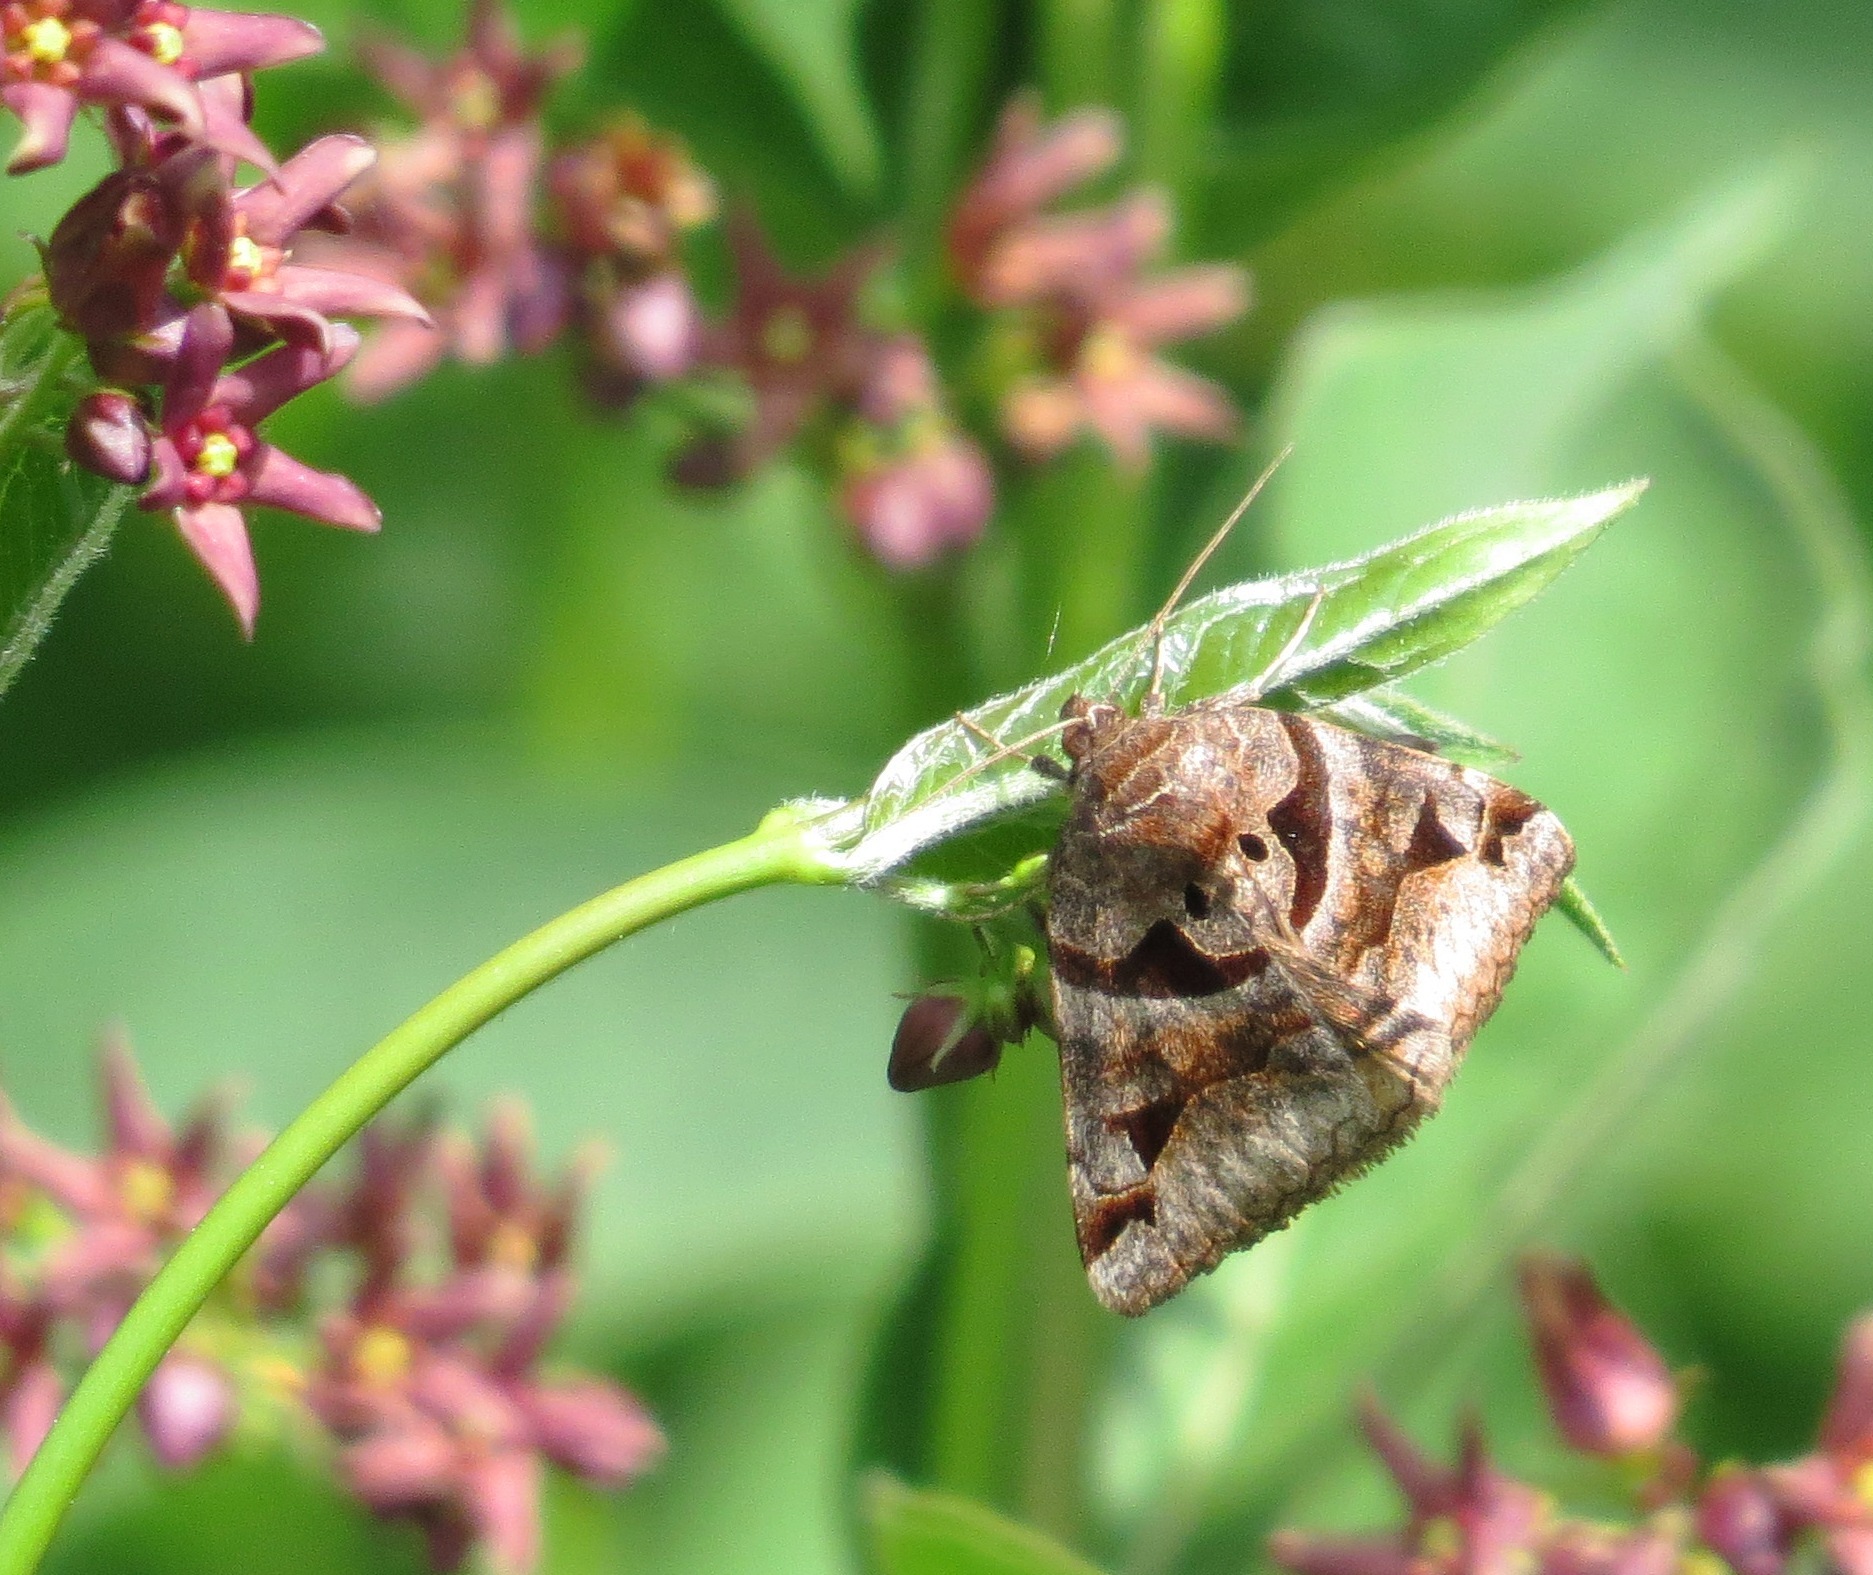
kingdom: Animalia
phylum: Arthropoda
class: Insecta
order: Lepidoptera
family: Erebidae
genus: Euclidia
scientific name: Euclidia cuspidea
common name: Toothed somberwing
